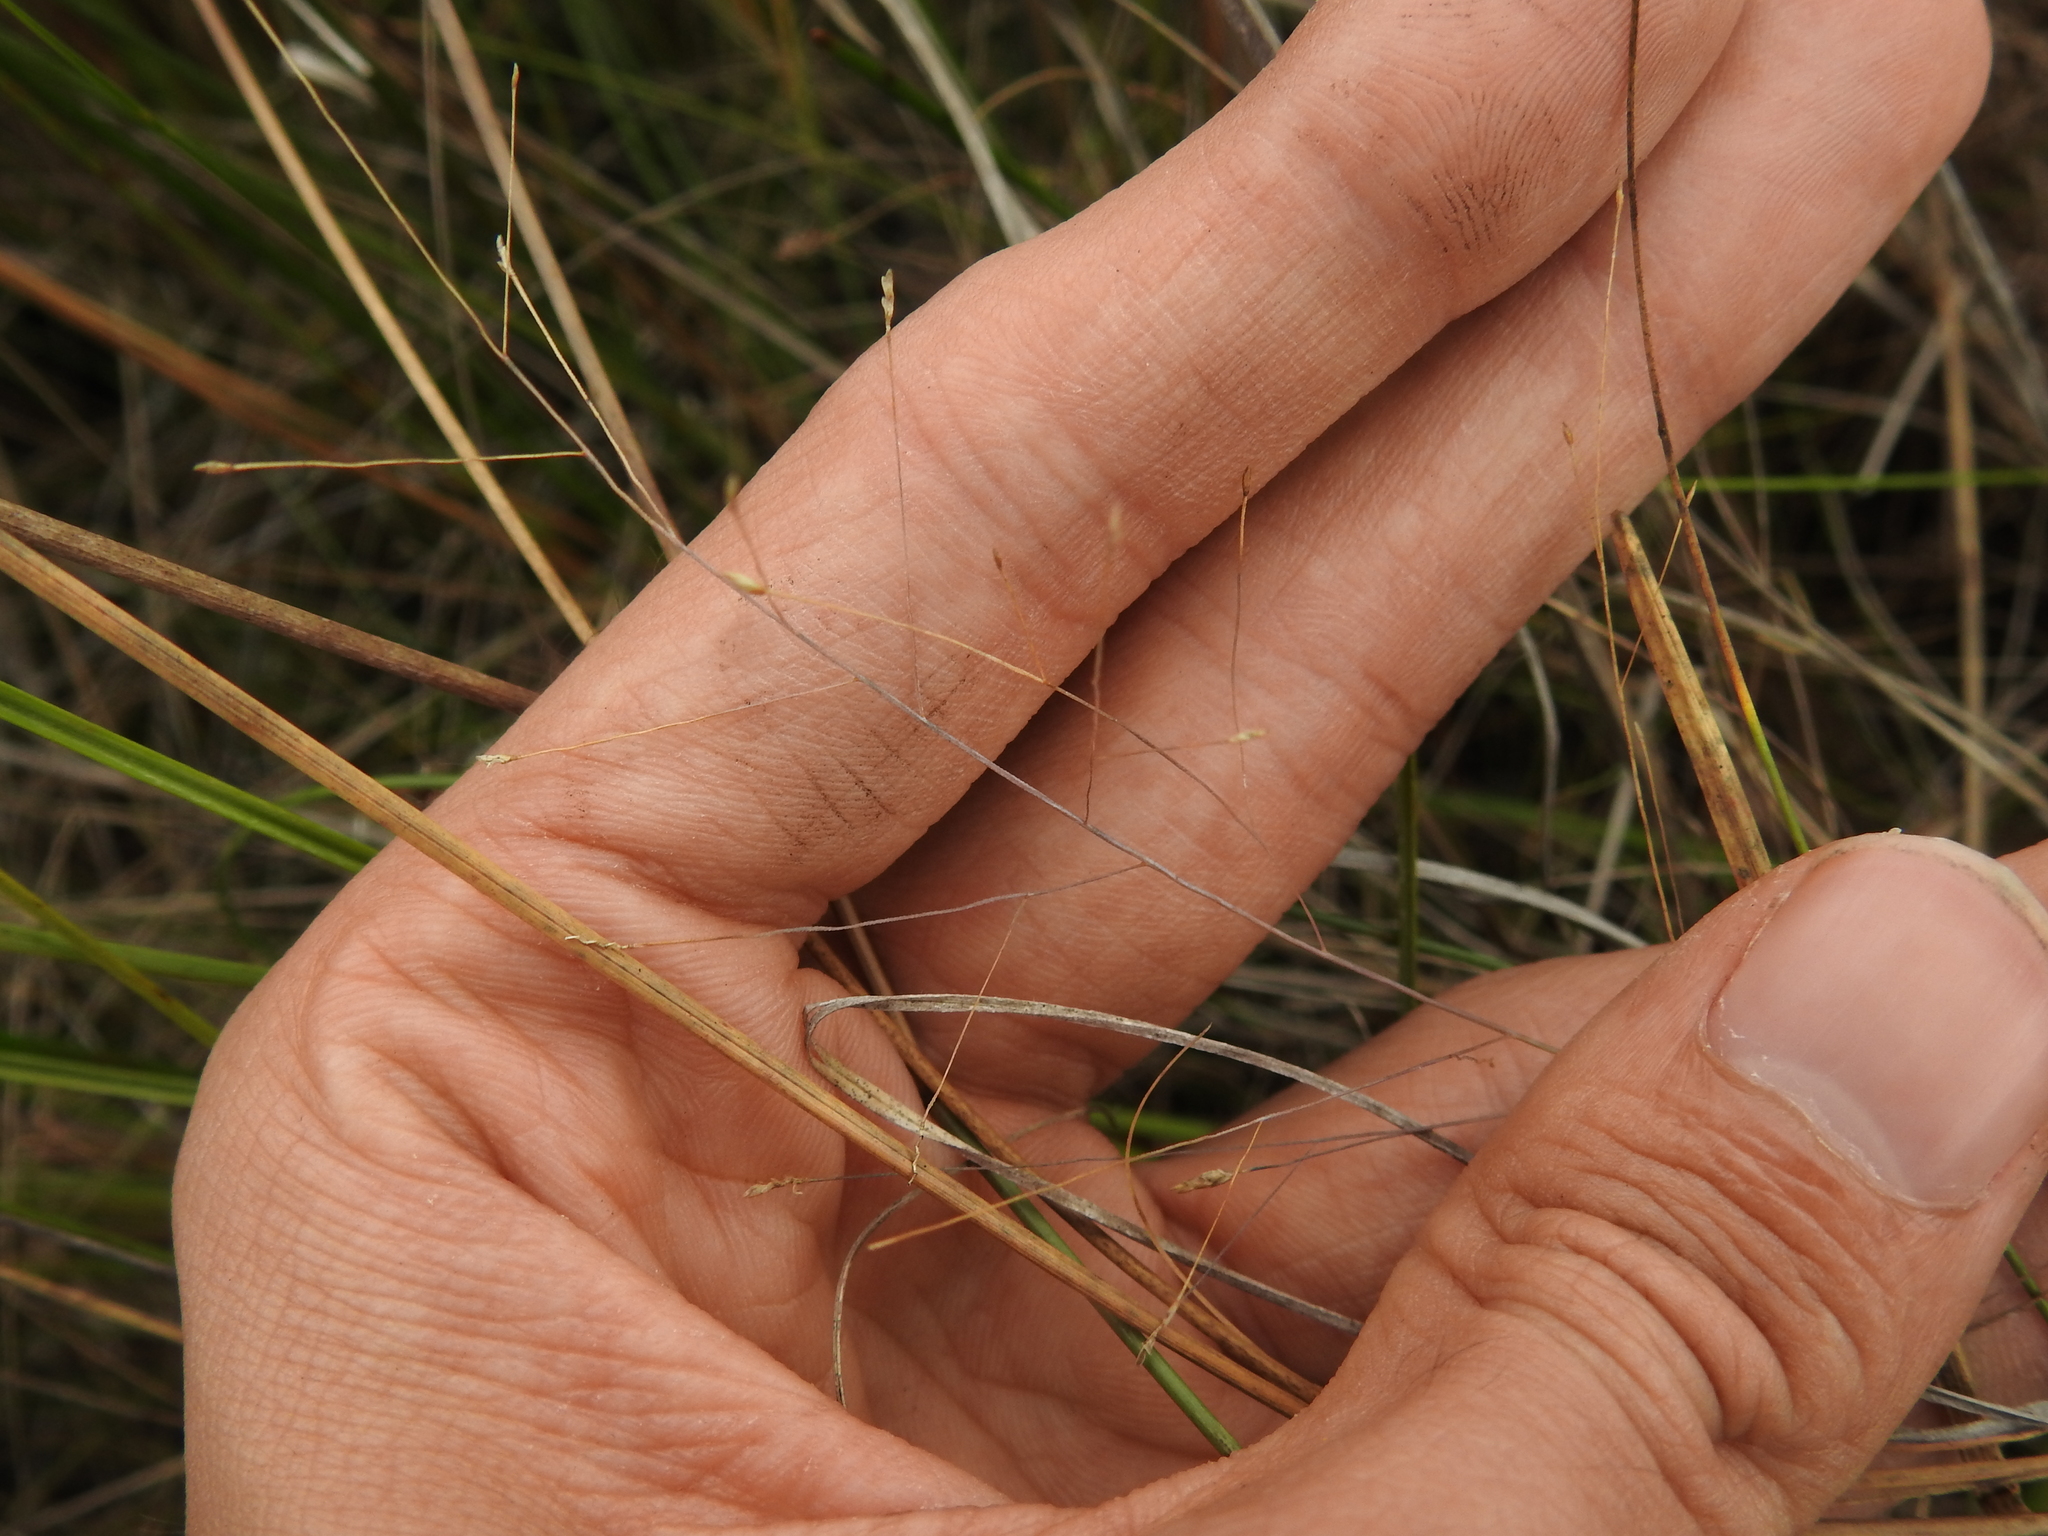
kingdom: Plantae
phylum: Tracheophyta
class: Liliopsida
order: Poales
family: Poaceae
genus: Eragrostis
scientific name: Eragrostis elliottii
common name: Elliott's love grass
